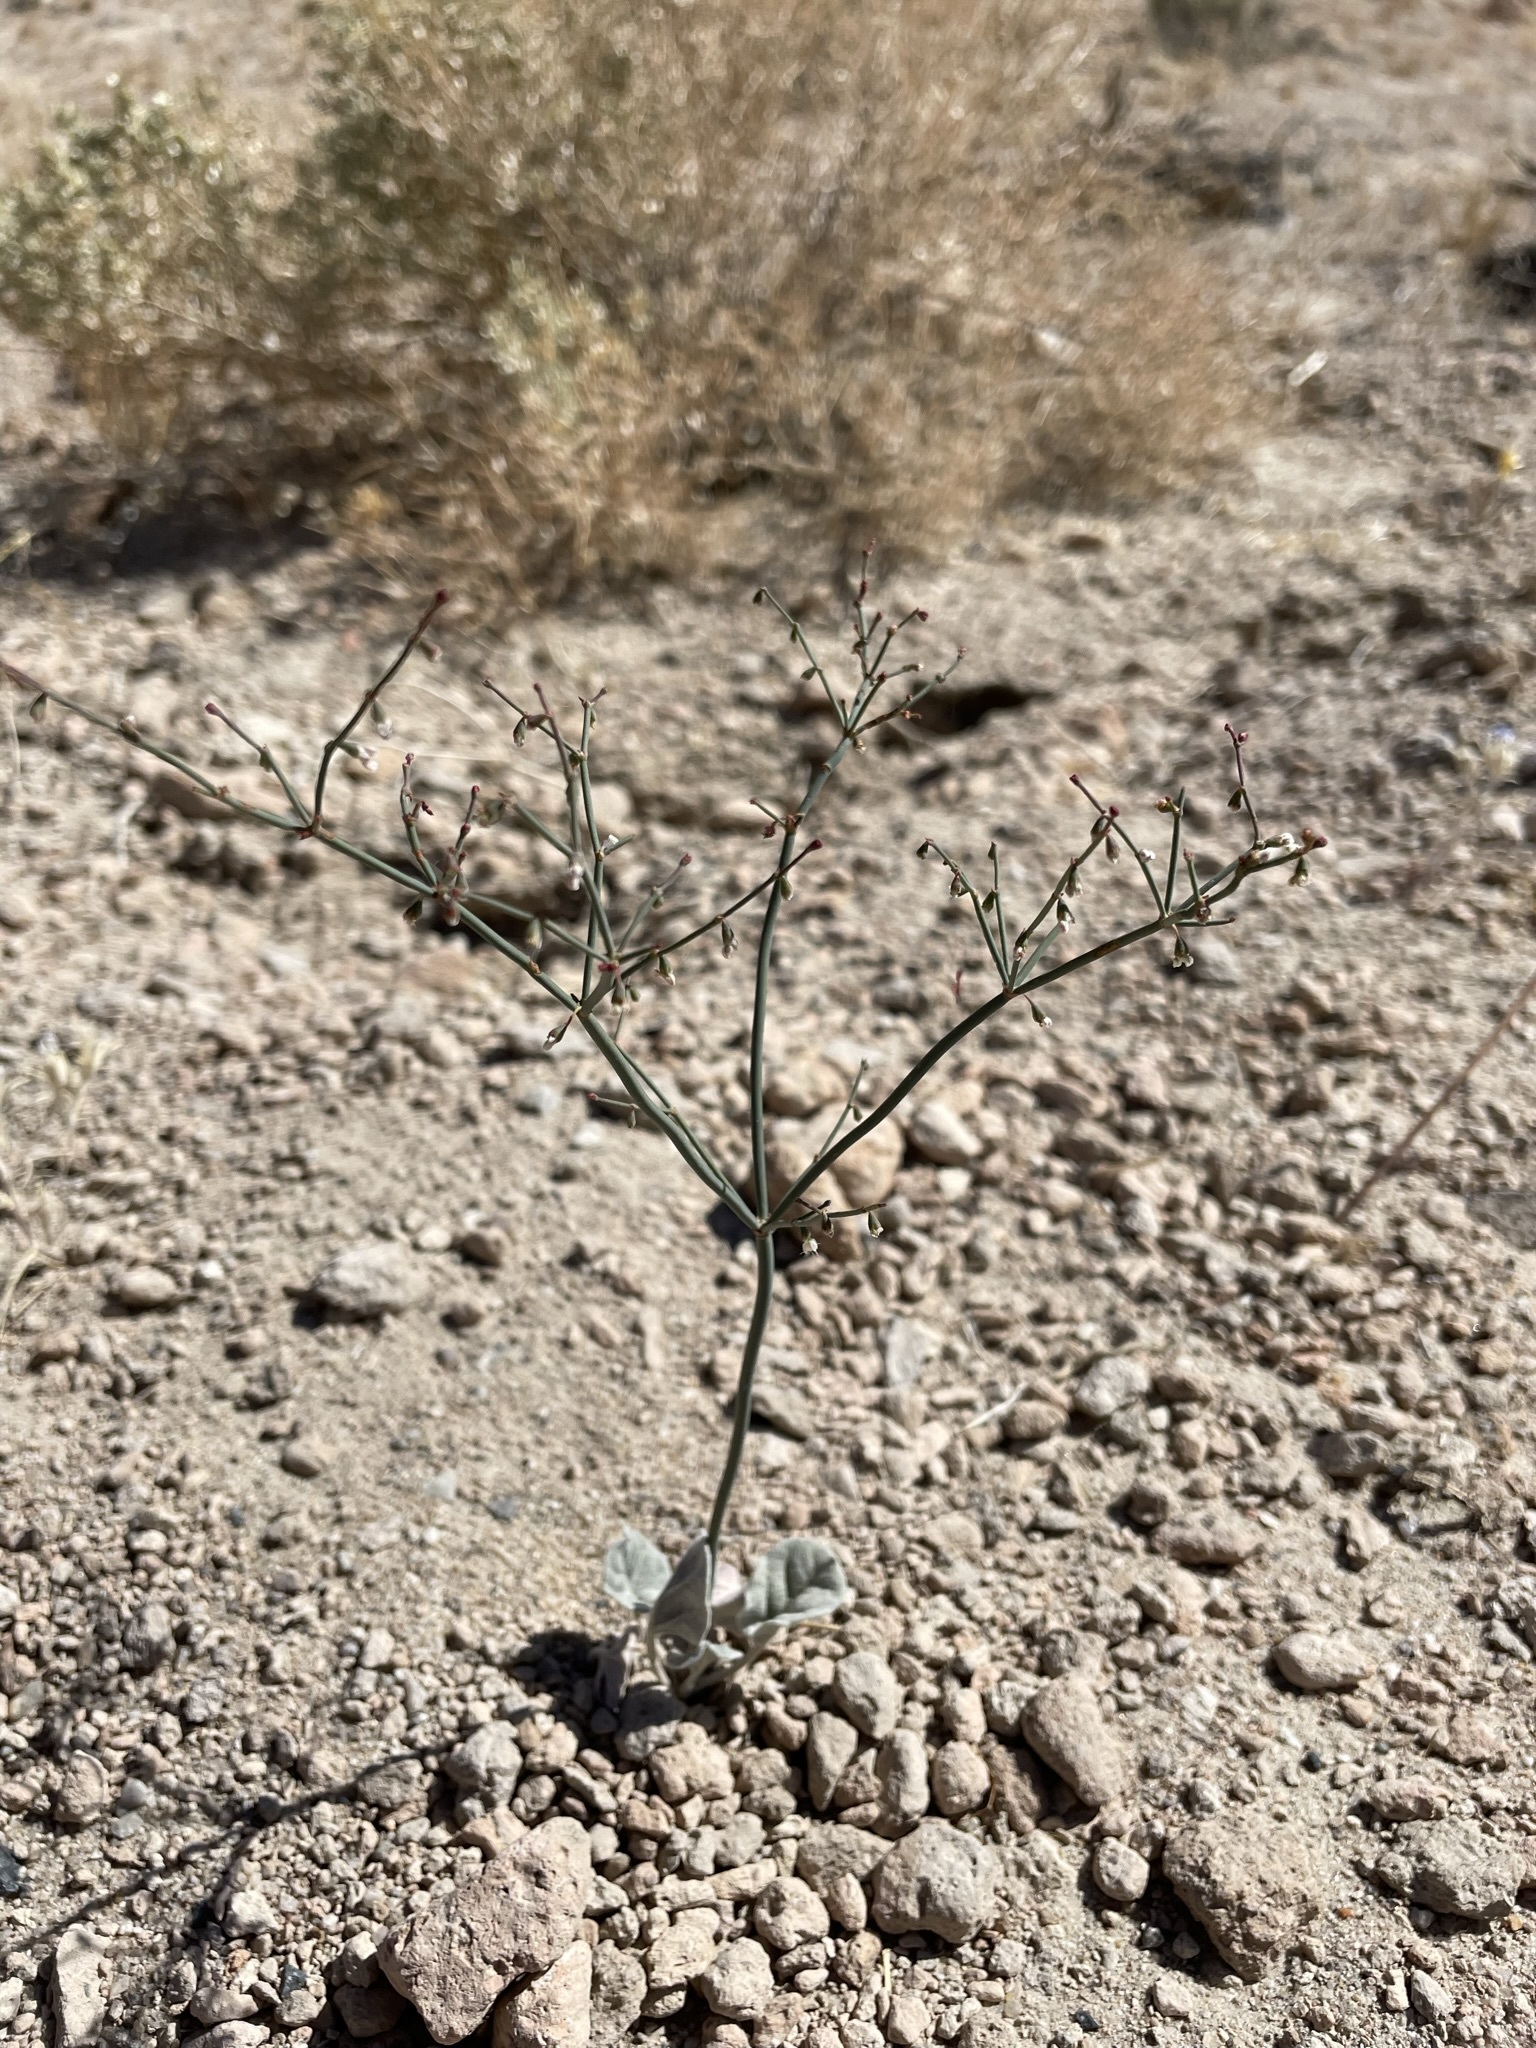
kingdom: Plantae
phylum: Tracheophyta
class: Magnoliopsida
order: Caryophyllales
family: Polygonaceae
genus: Eriogonum
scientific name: Eriogonum deflexum
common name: Skeleton-weed
